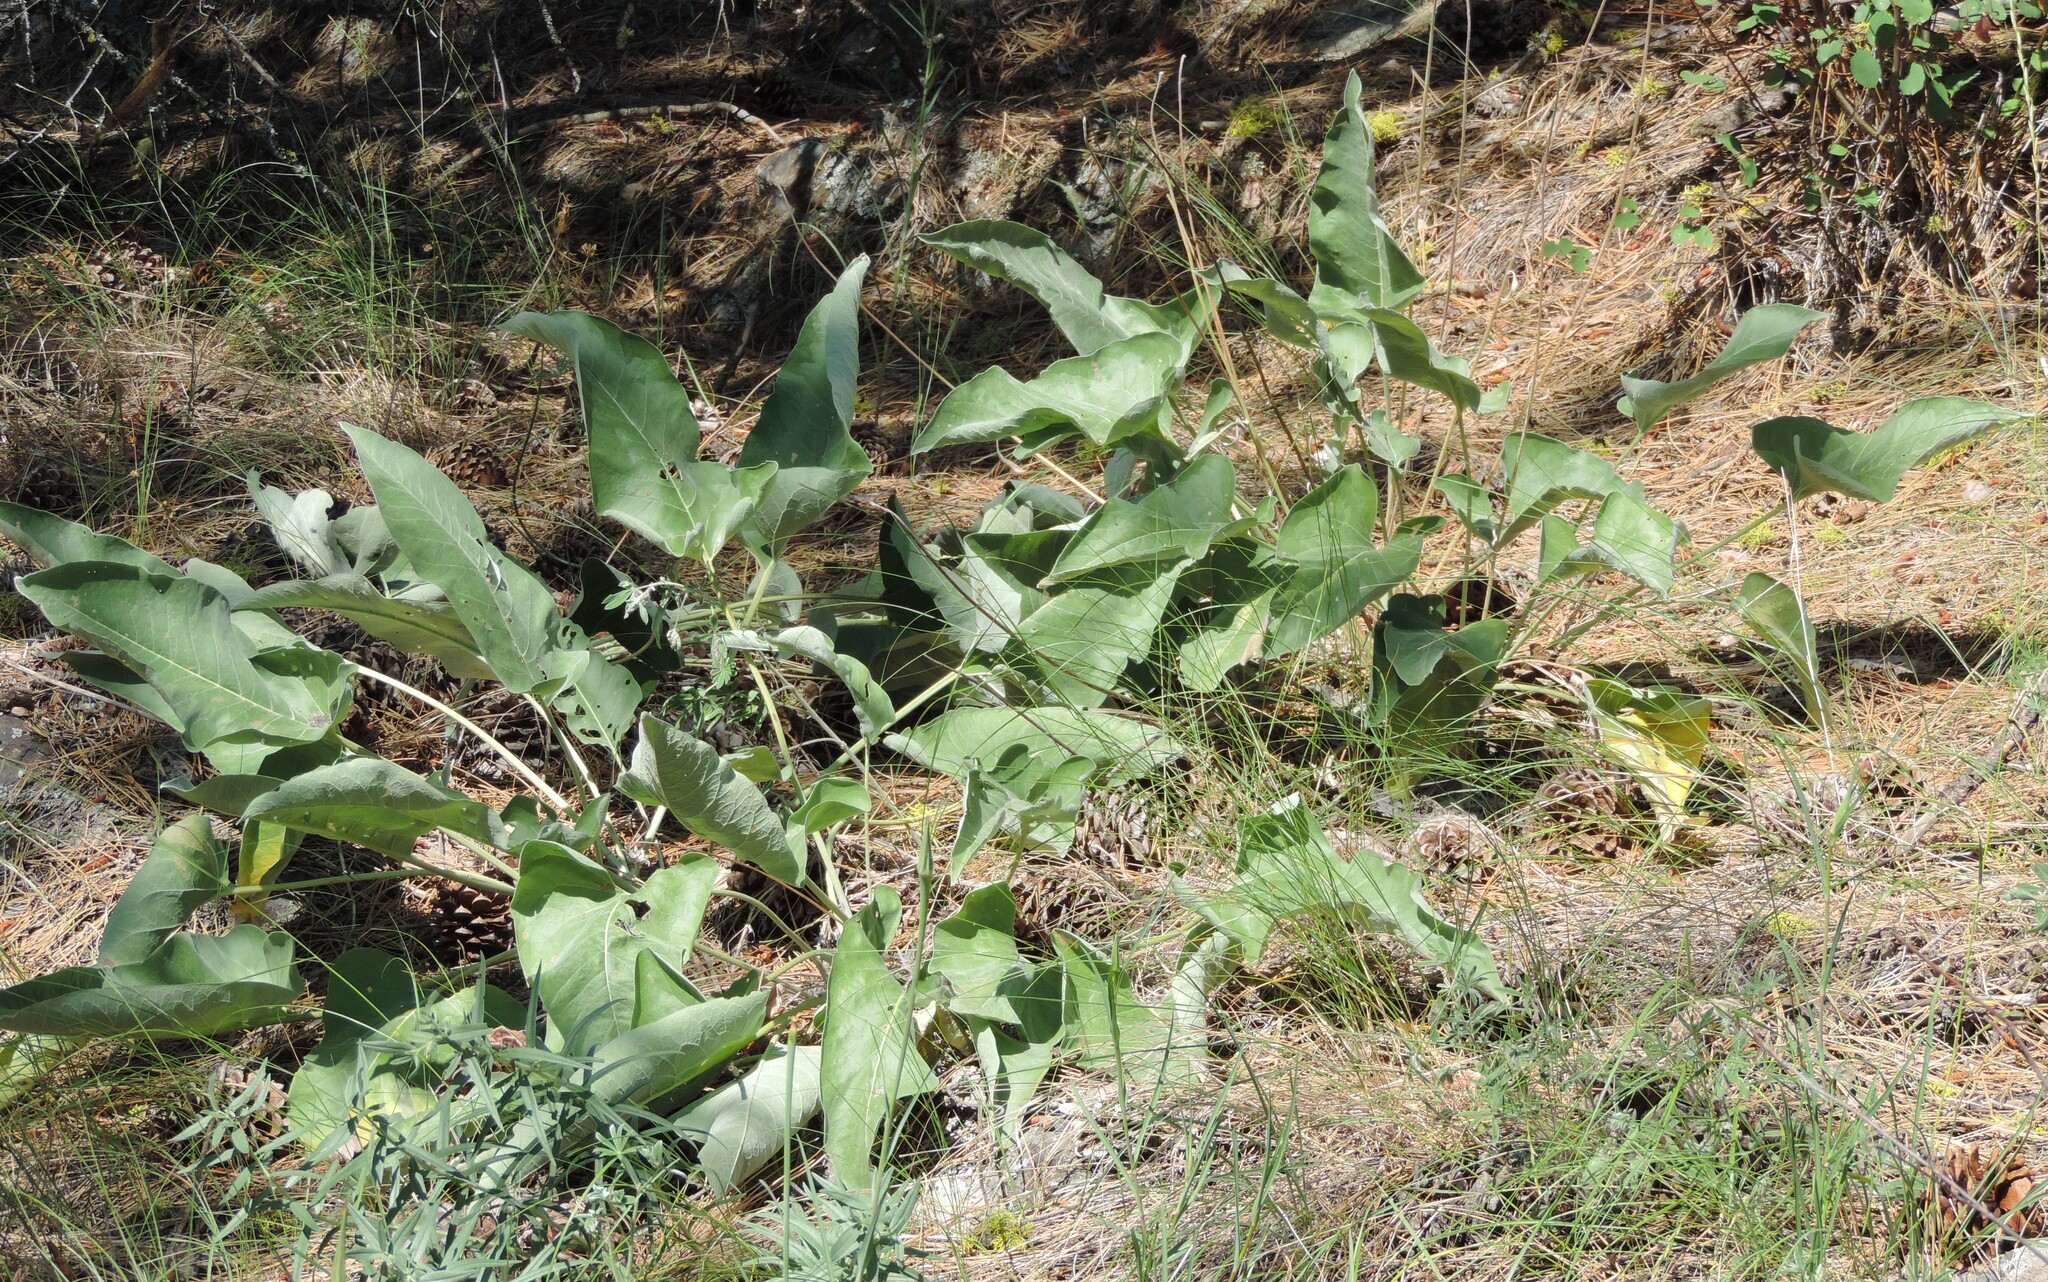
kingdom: Plantae
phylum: Tracheophyta
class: Magnoliopsida
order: Asterales
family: Asteraceae
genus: Wyethia
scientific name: Wyethia sagittata
